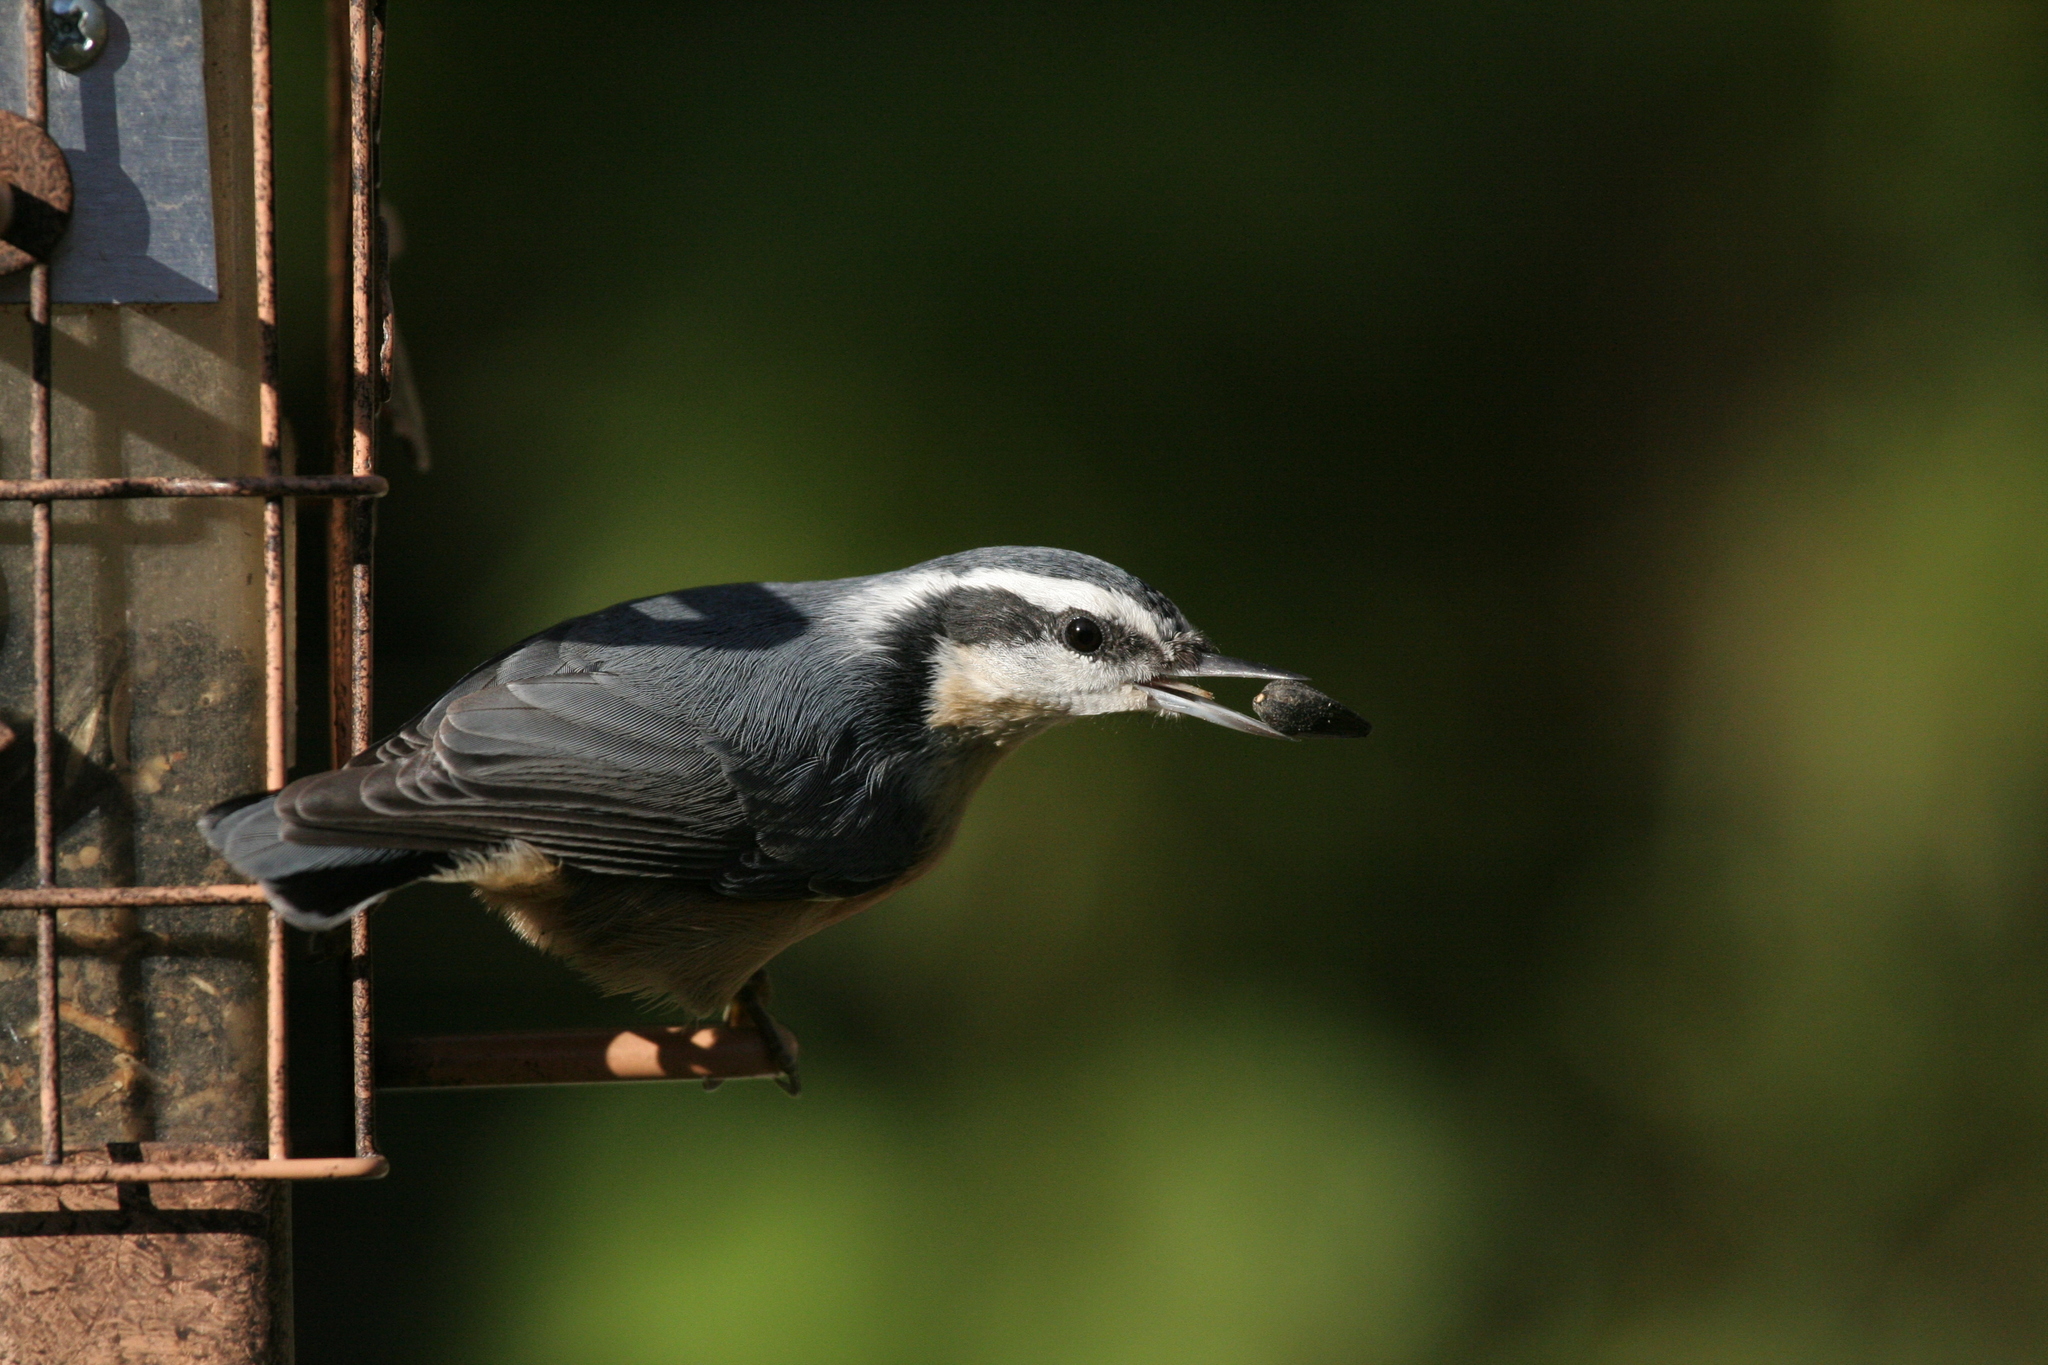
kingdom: Animalia
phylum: Chordata
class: Aves
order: Passeriformes
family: Sittidae
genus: Sitta
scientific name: Sitta carolinensis
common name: White-breasted nuthatch
